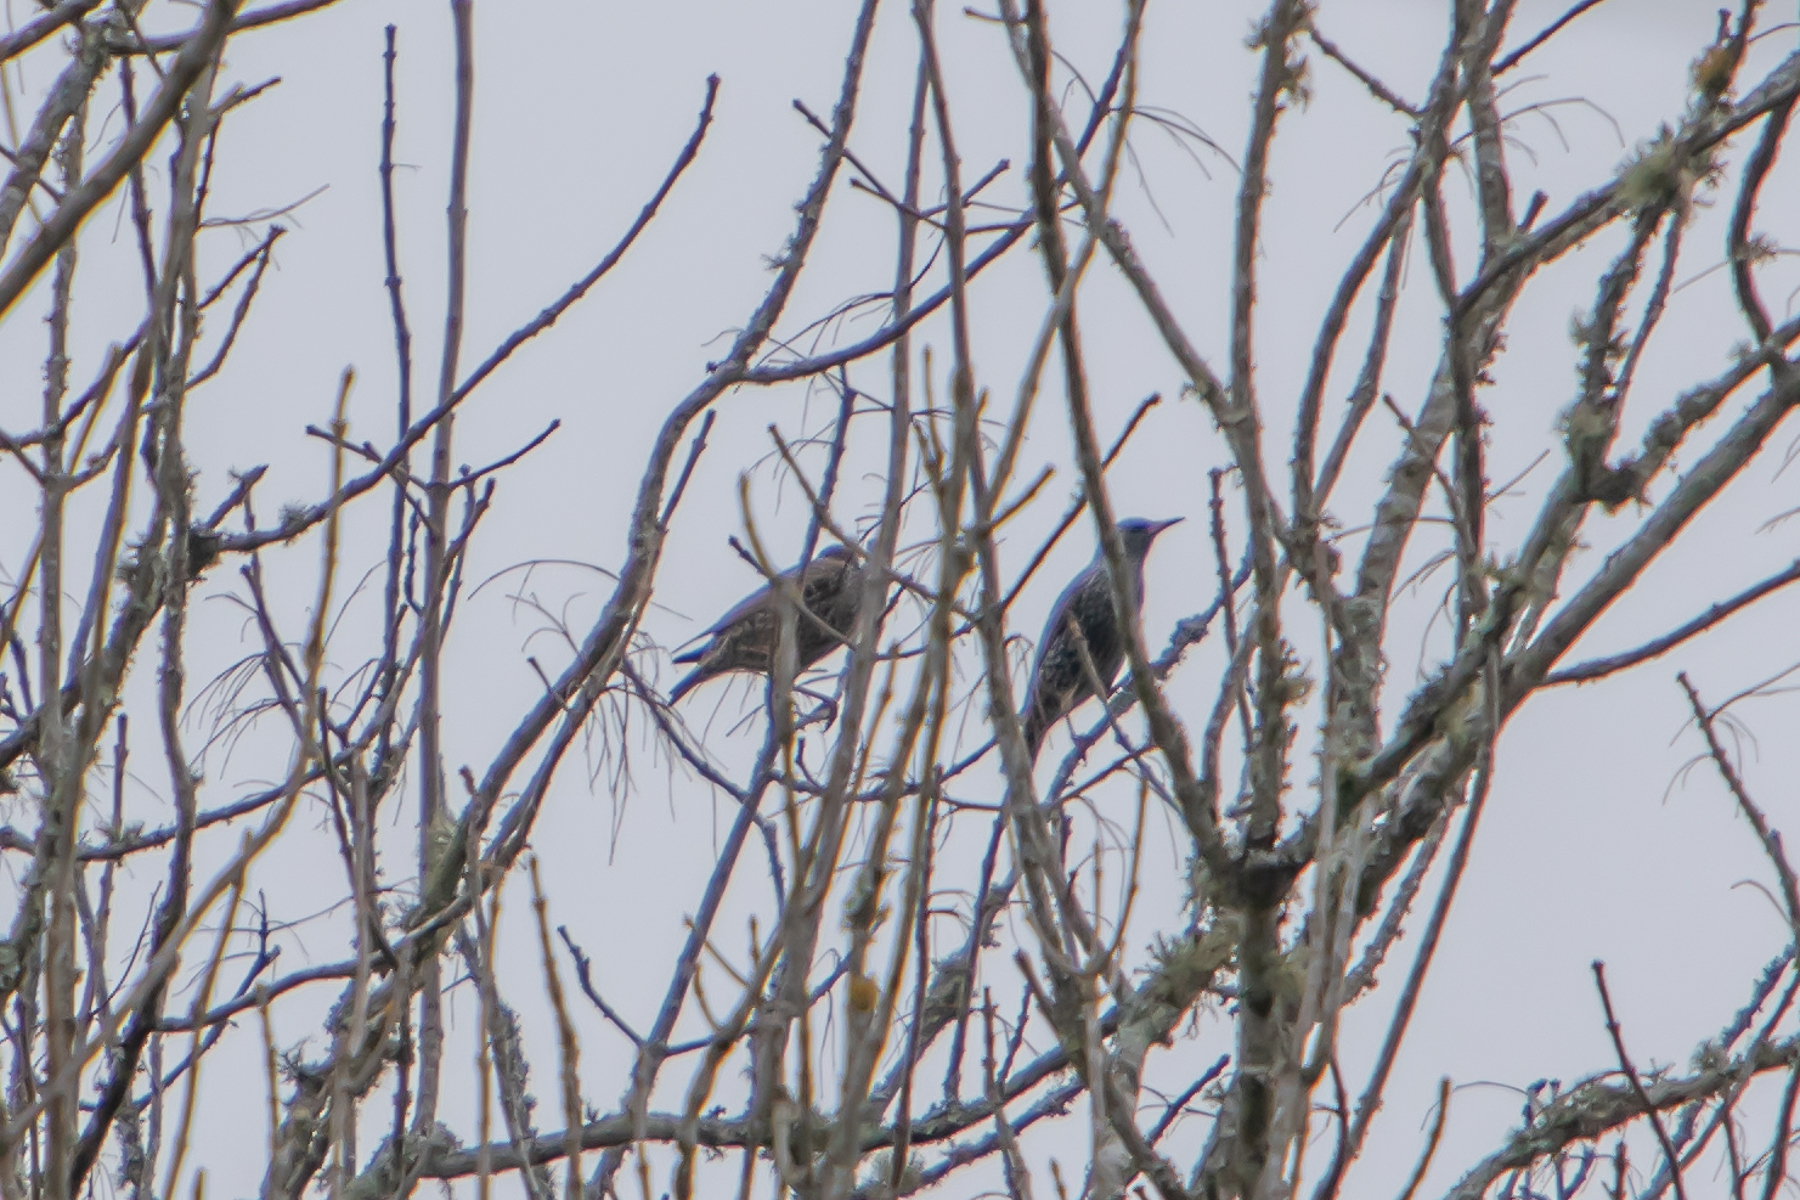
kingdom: Animalia
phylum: Chordata
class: Aves
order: Passeriformes
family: Sturnidae
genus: Sturnus
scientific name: Sturnus vulgaris
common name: Common starling
